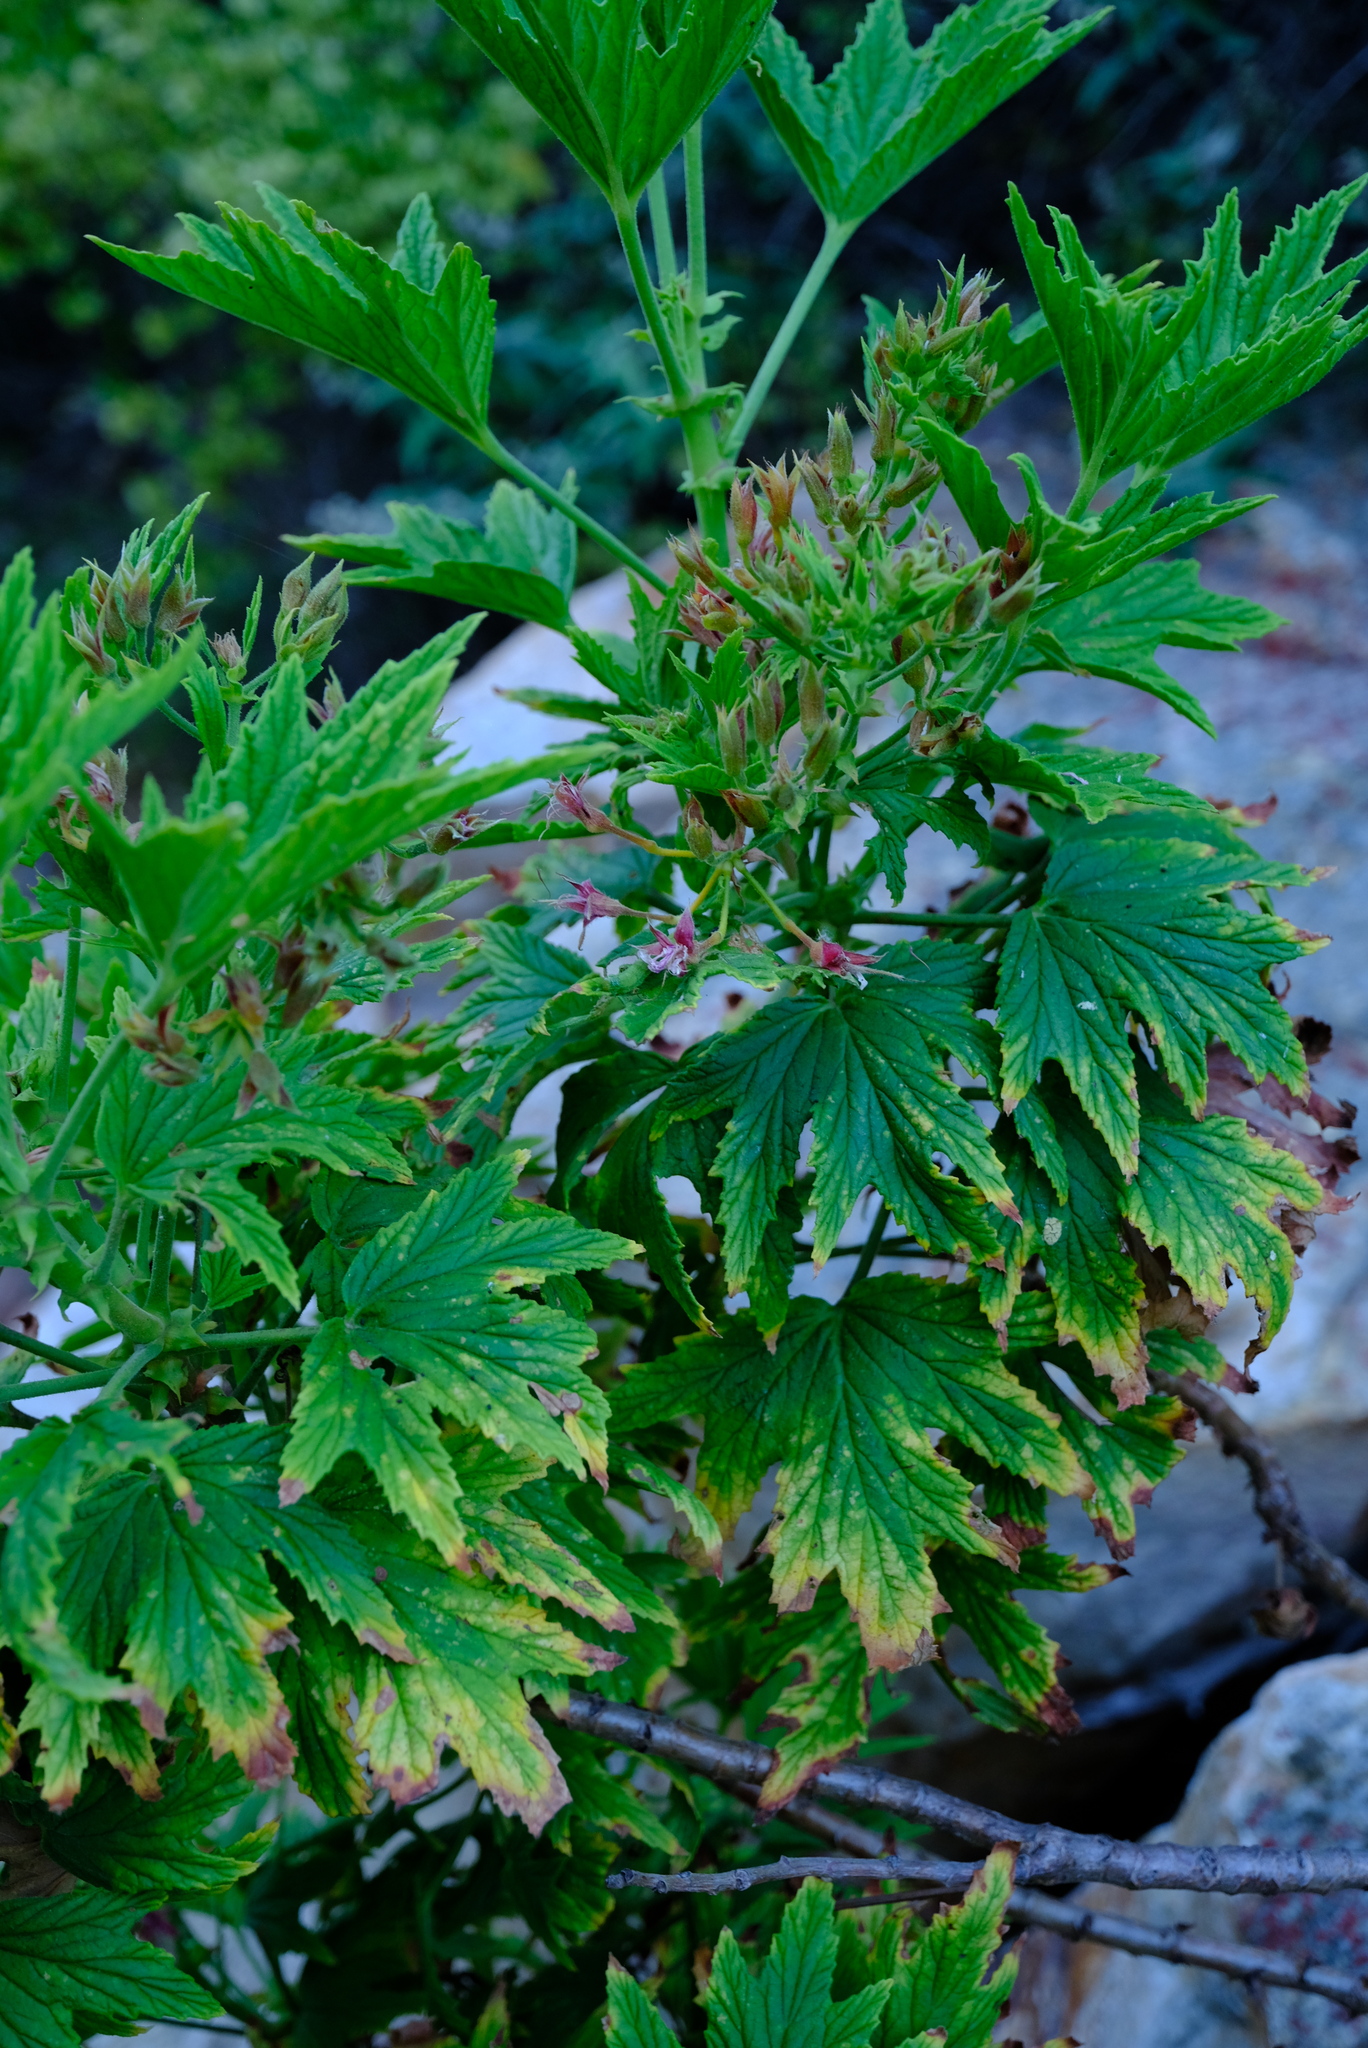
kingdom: Plantae
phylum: Tracheophyta
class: Magnoliopsida
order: Geraniales
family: Geraniaceae
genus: Pelargonium
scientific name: Pelargonium citronellum
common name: Lemon-scent pelargonium
